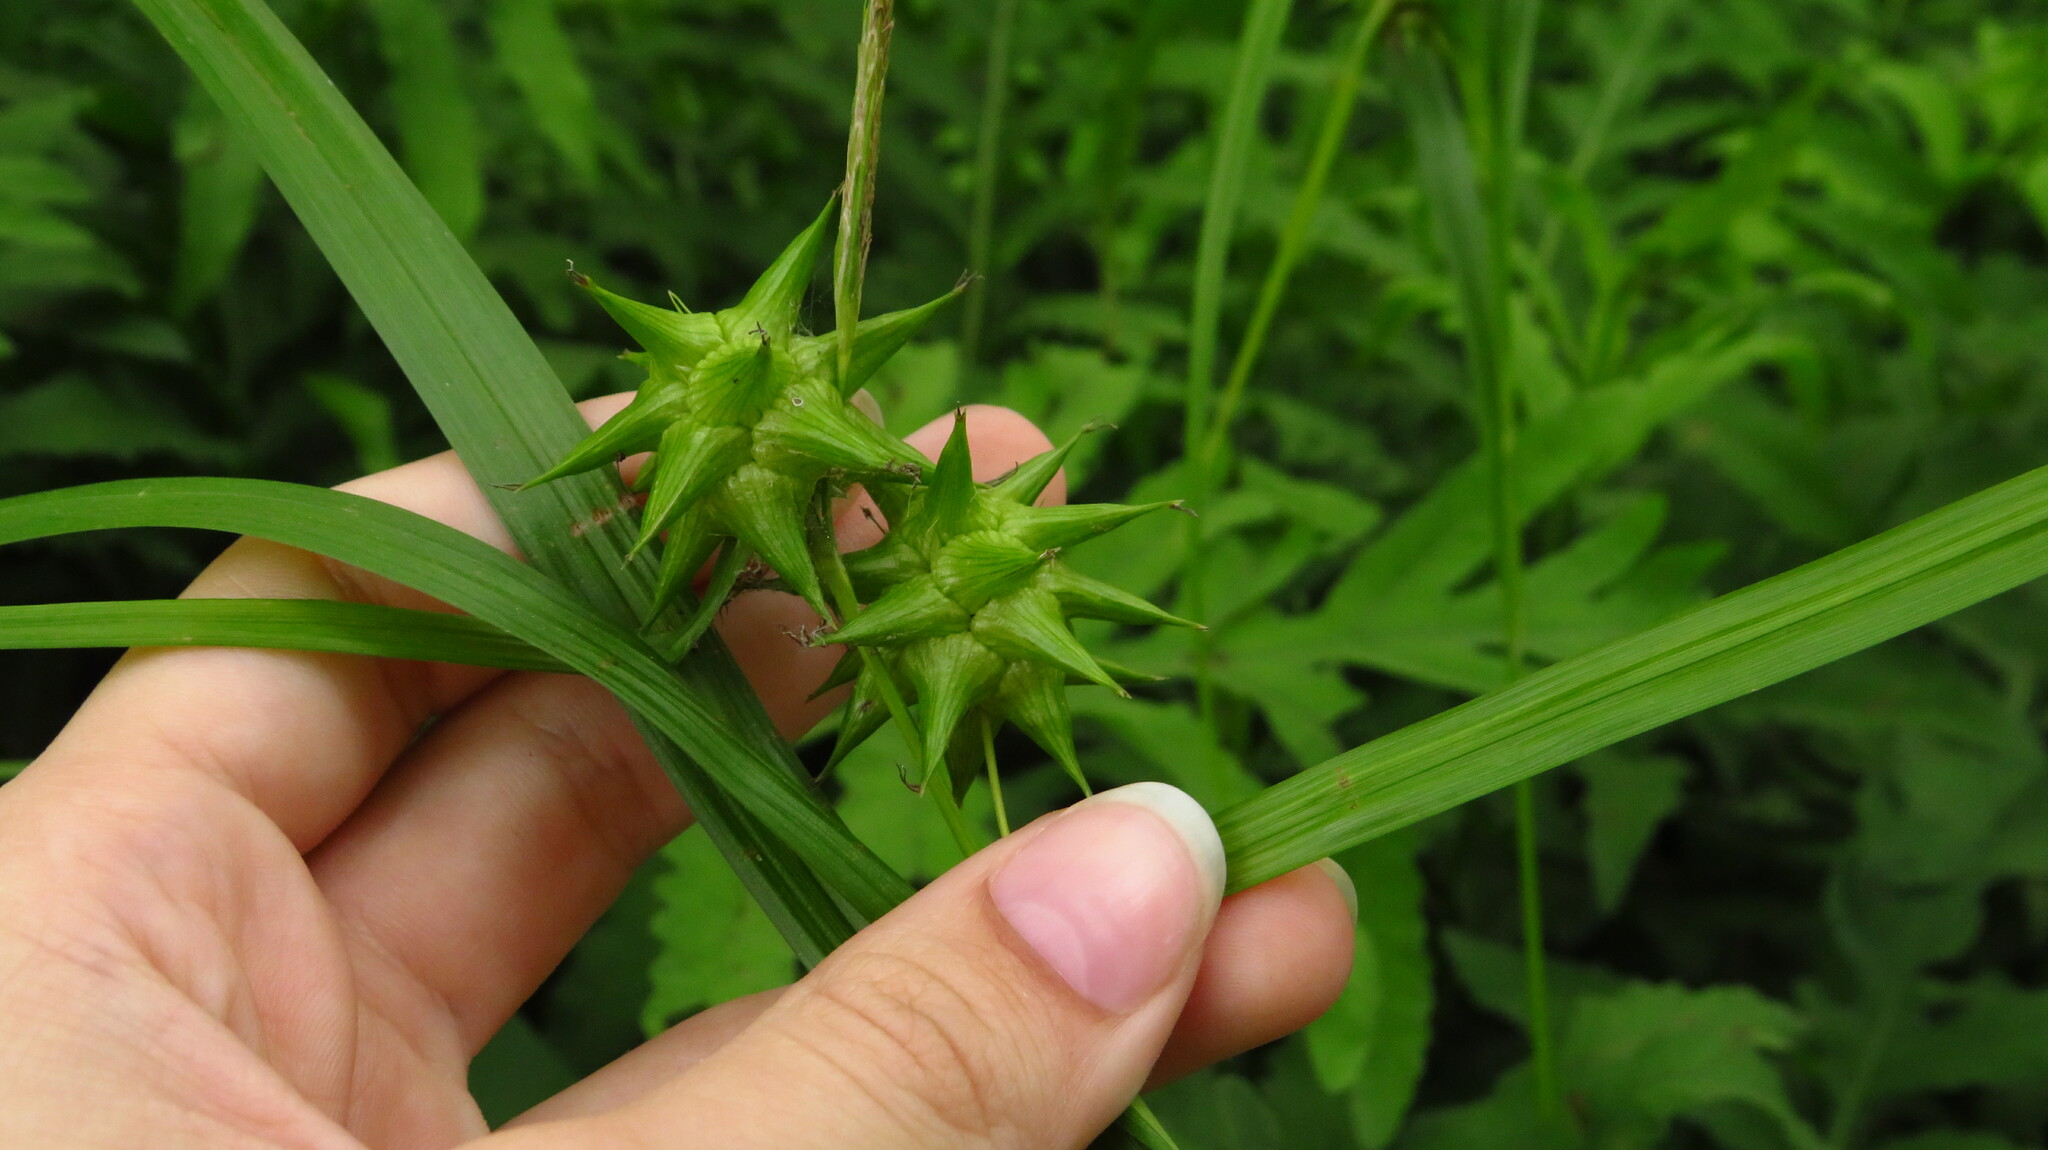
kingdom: Plantae
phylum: Tracheophyta
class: Liliopsida
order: Poales
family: Cyperaceae
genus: Carex
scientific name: Carex grayi
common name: Asa gray's sedge
